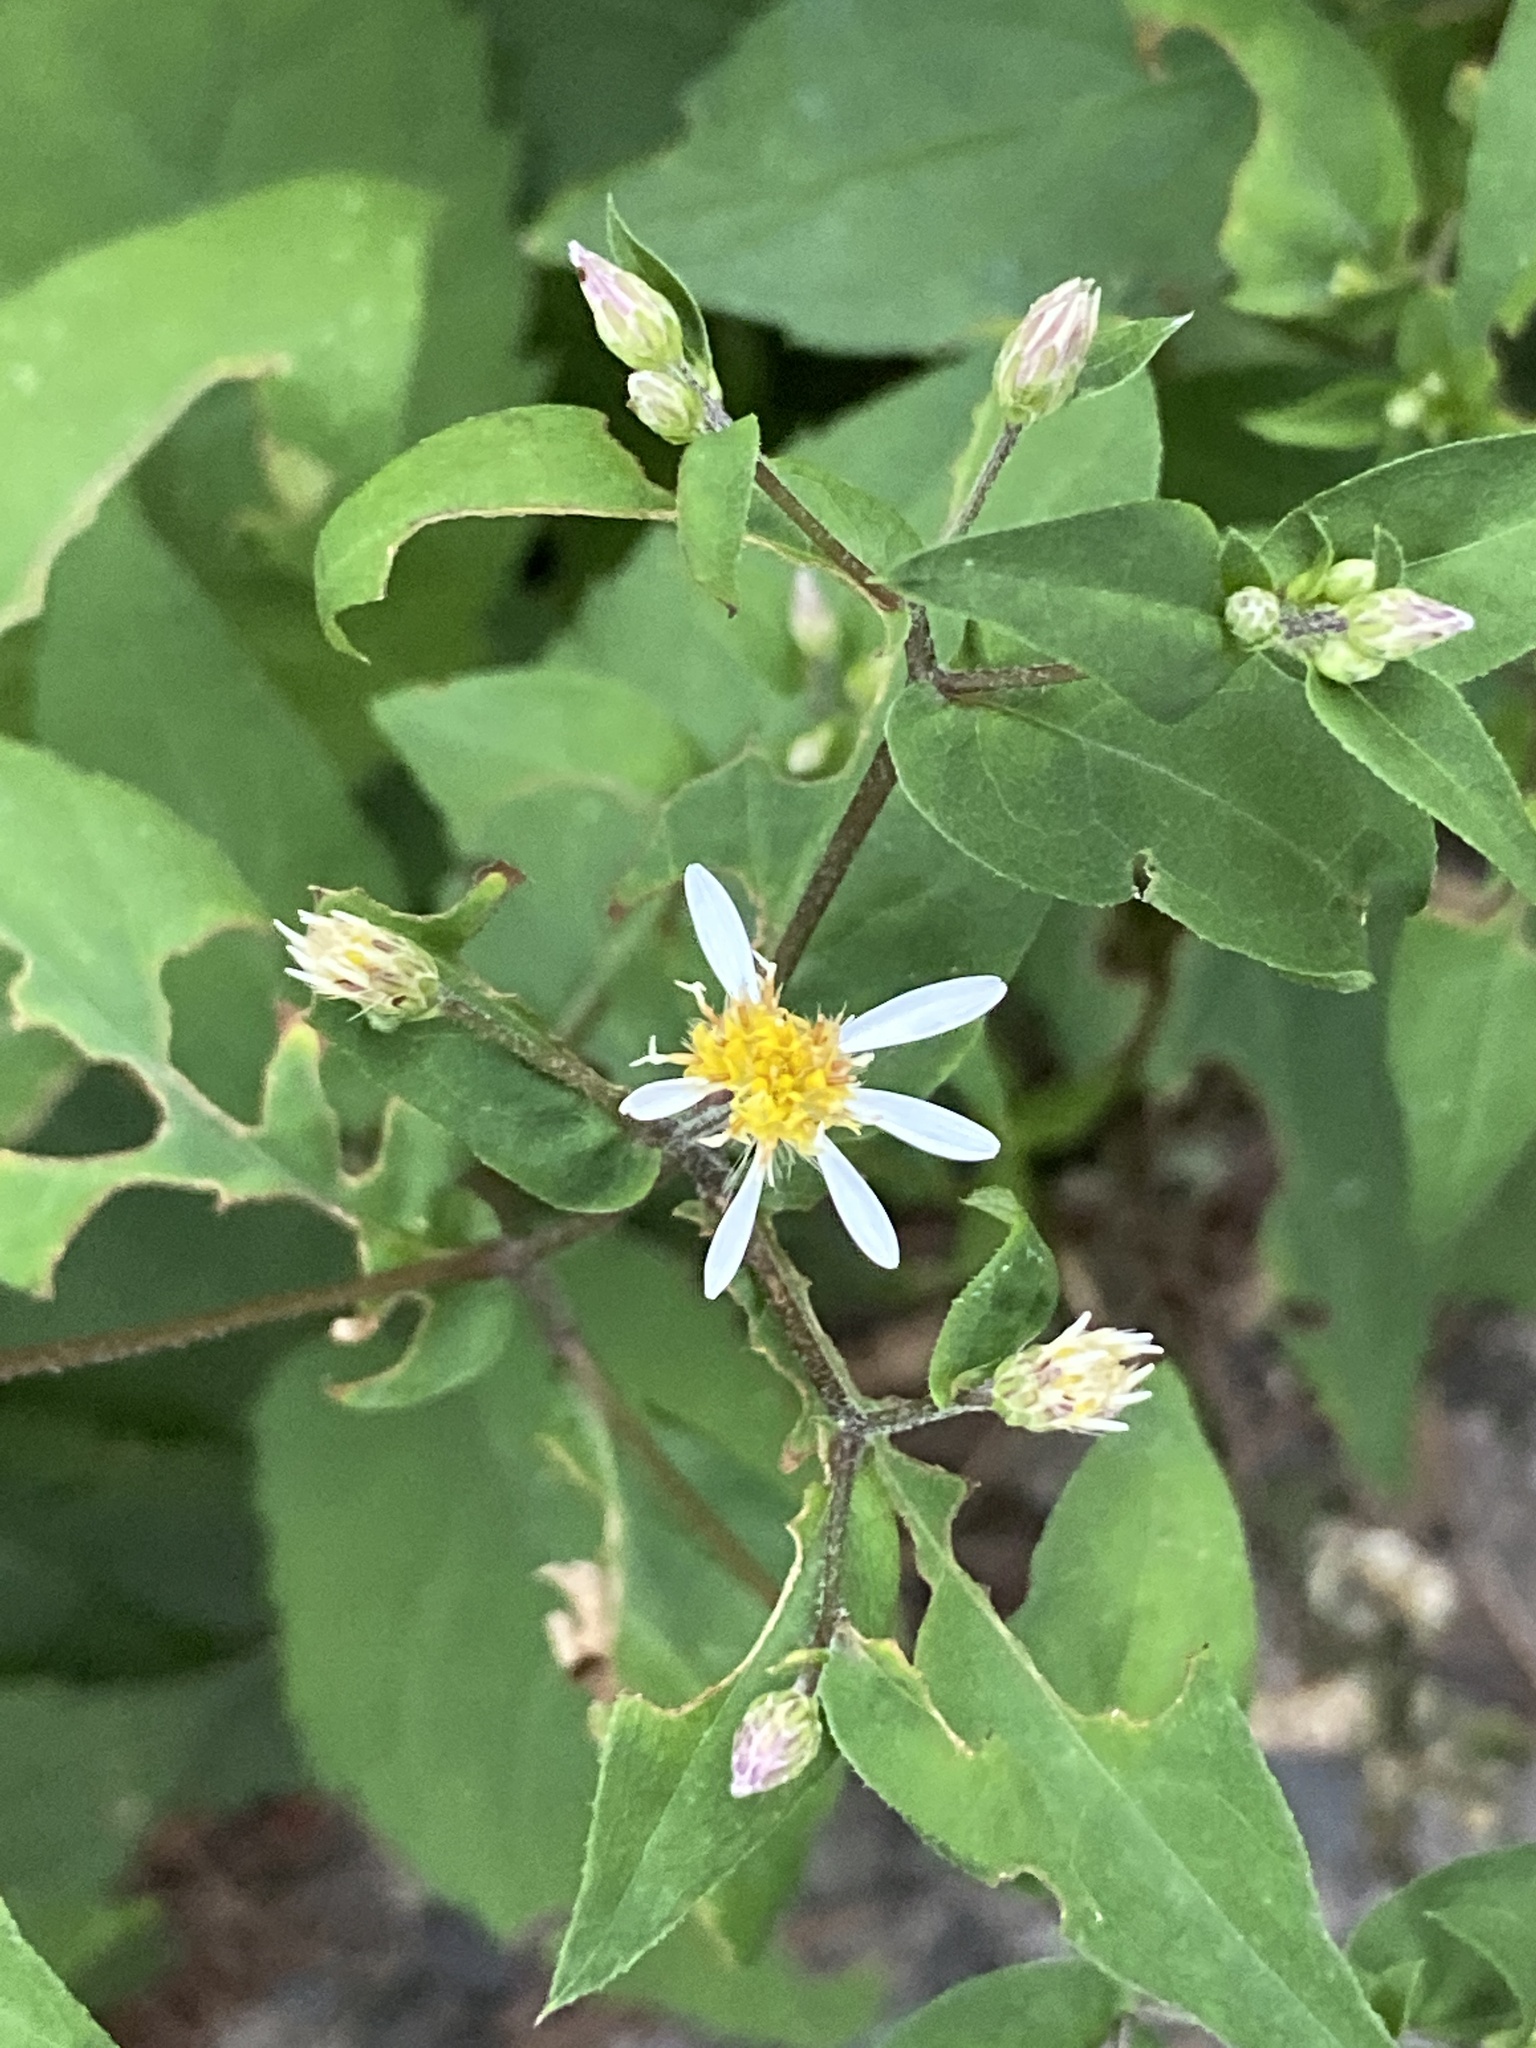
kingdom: Plantae
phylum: Tracheophyta
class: Magnoliopsida
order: Asterales
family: Asteraceae
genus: Eurybia
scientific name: Eurybia divaricata
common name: White wood aster
